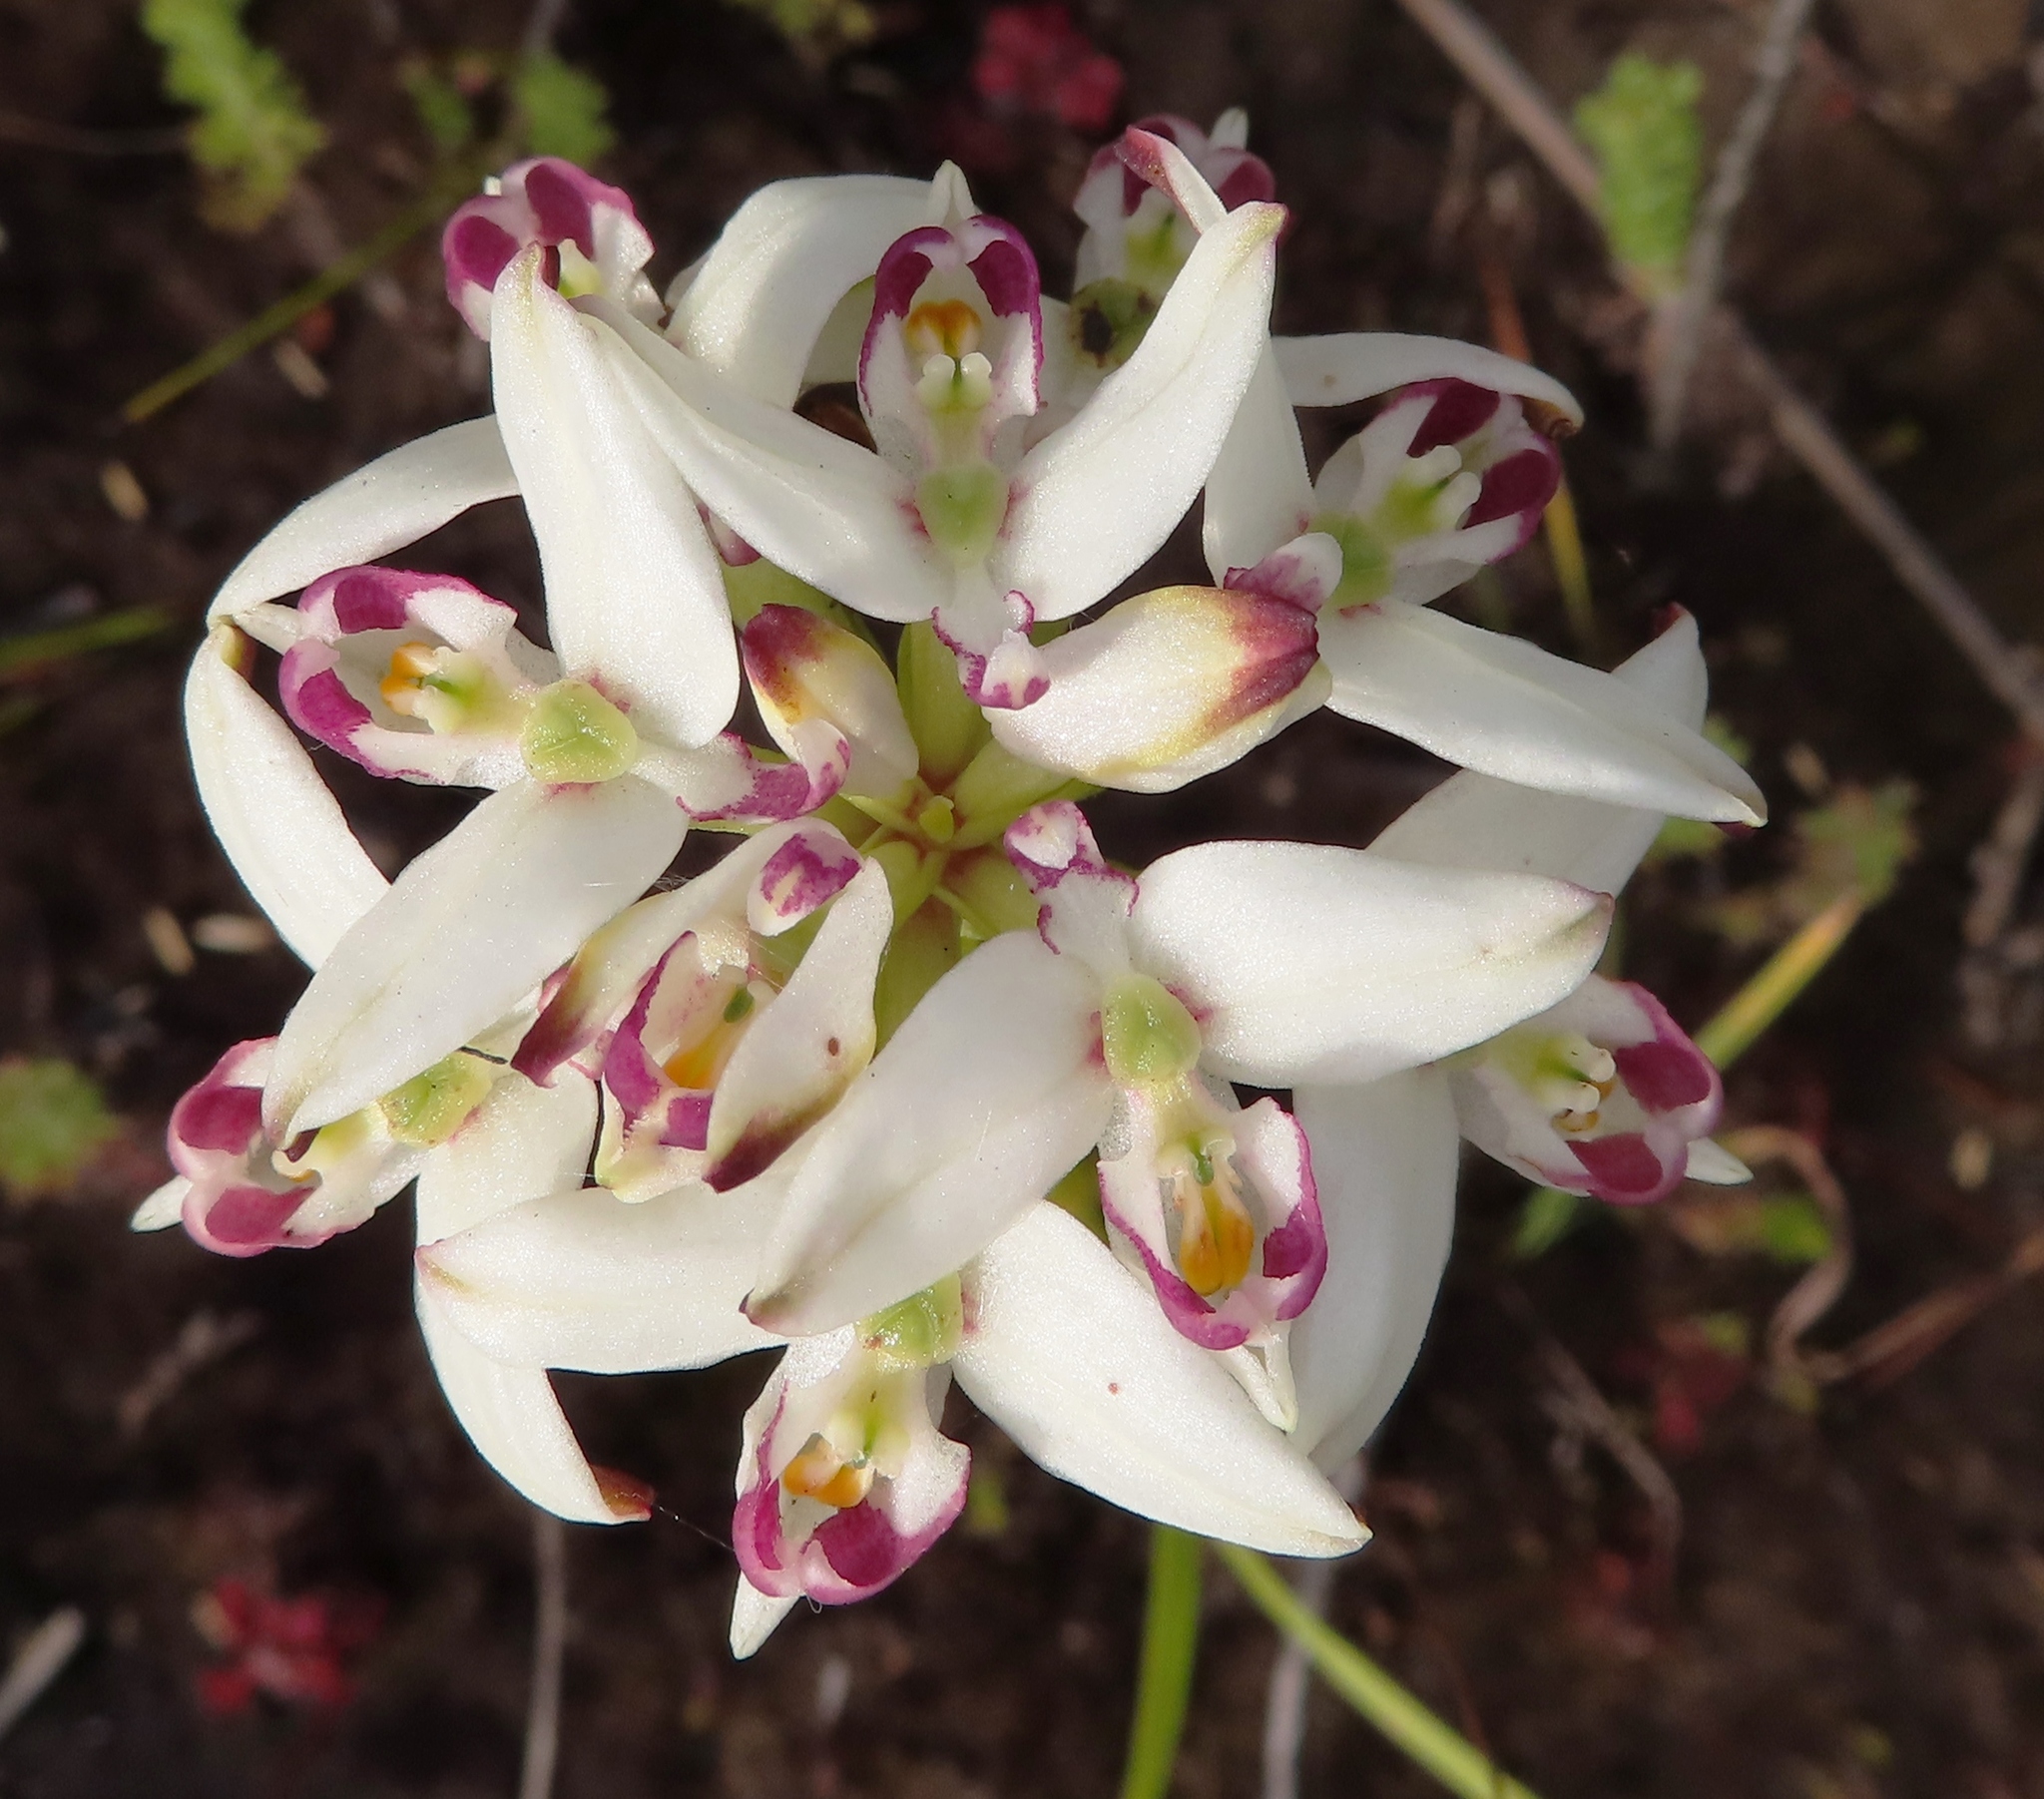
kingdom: Plantae
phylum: Tracheophyta
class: Liliopsida
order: Asparagales
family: Orchidaceae
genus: Disa
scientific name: Disa bivalvata
